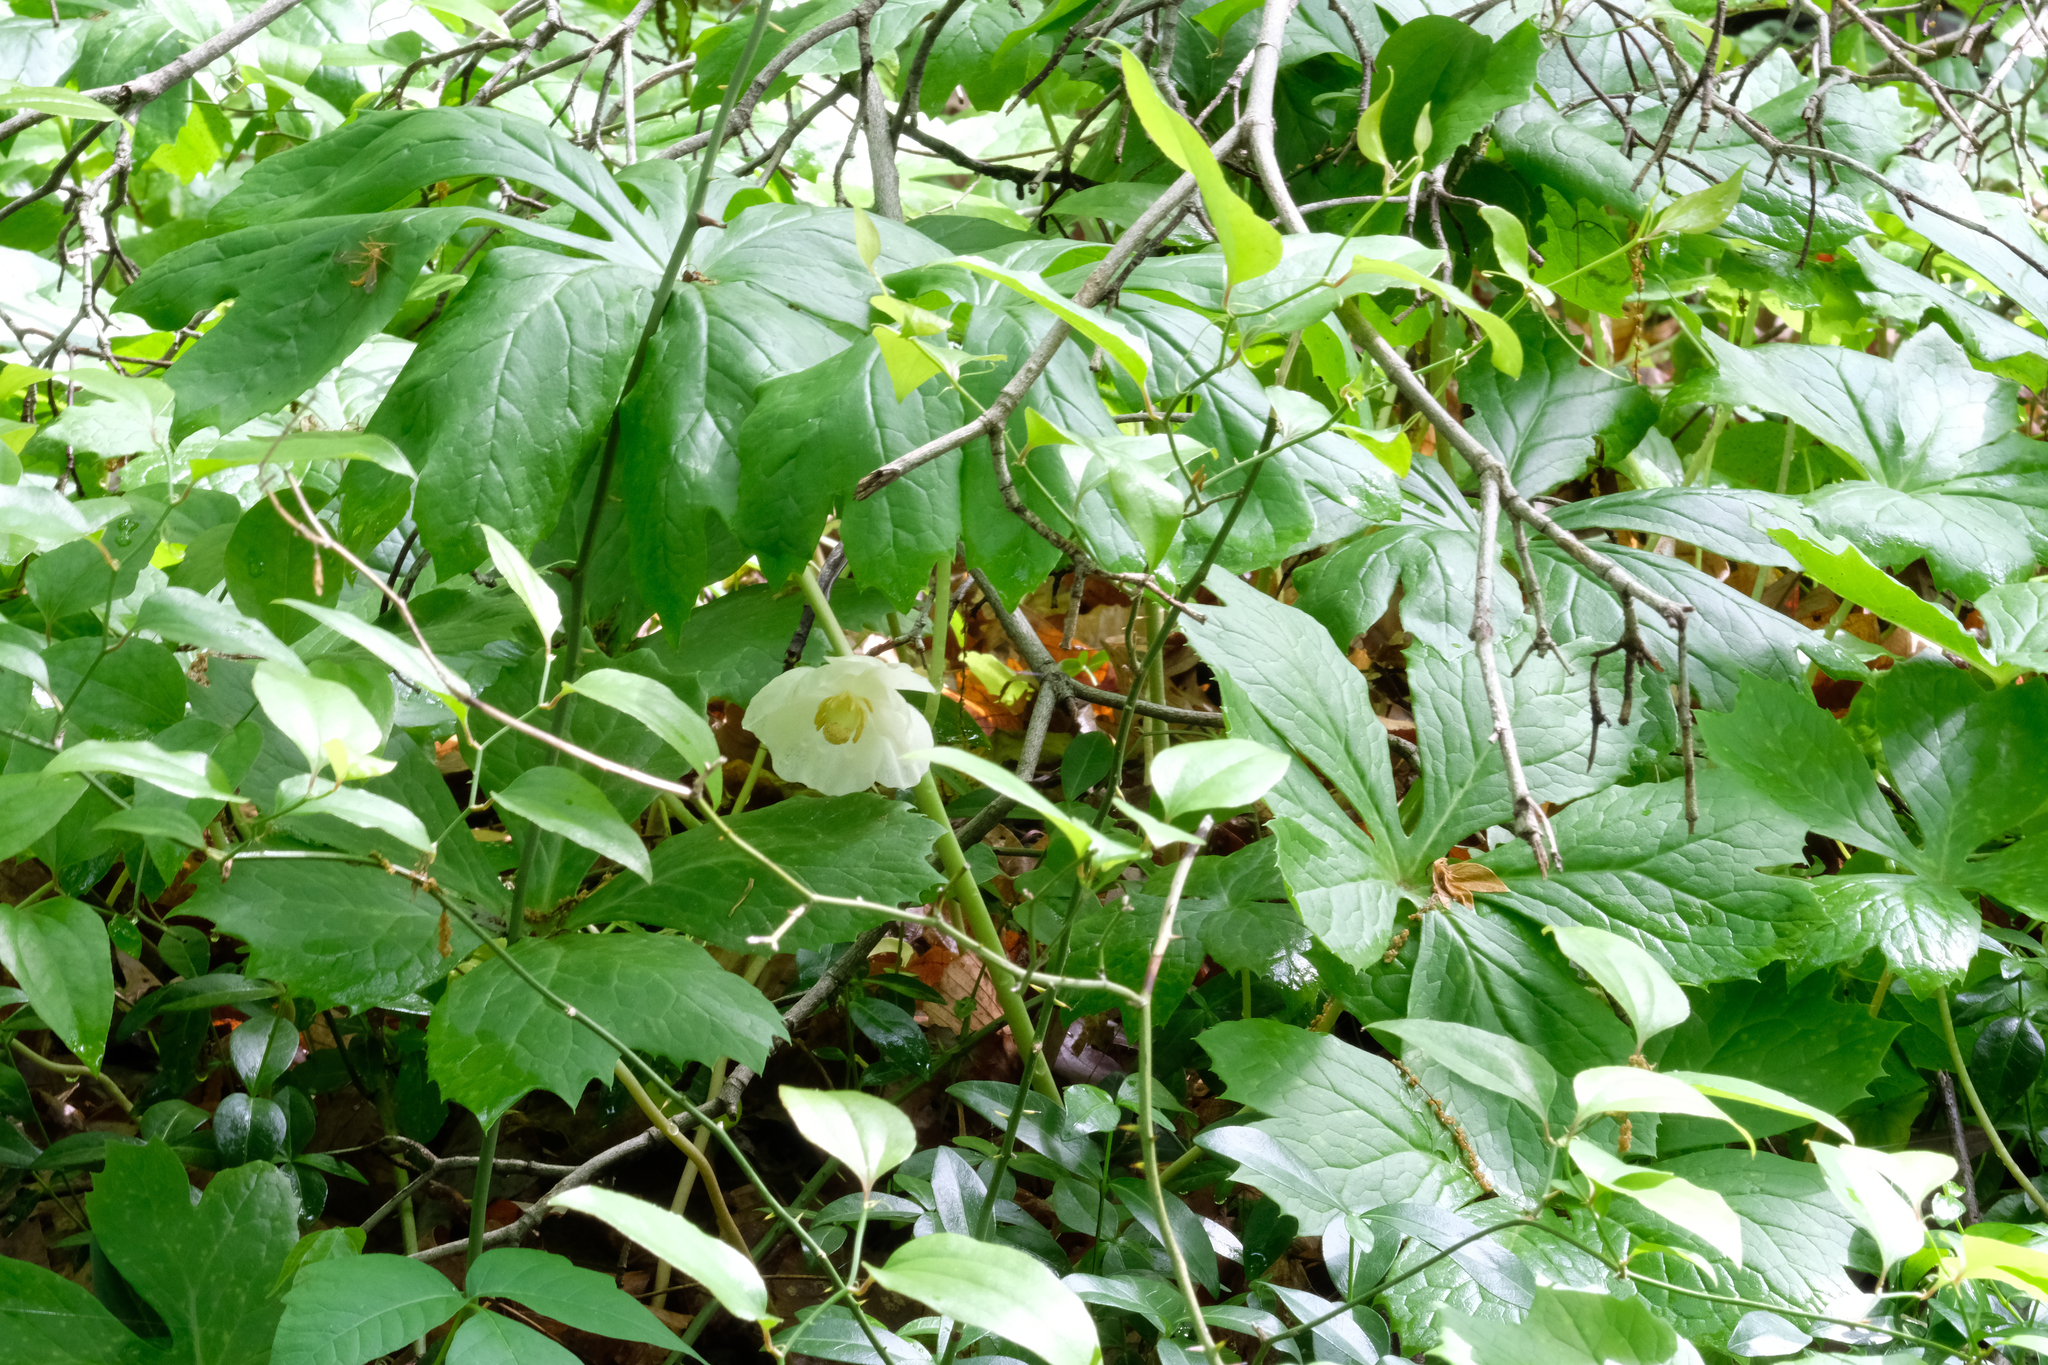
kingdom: Plantae
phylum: Tracheophyta
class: Magnoliopsida
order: Ranunculales
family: Berberidaceae
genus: Podophyllum
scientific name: Podophyllum peltatum
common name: Wild mandrake
